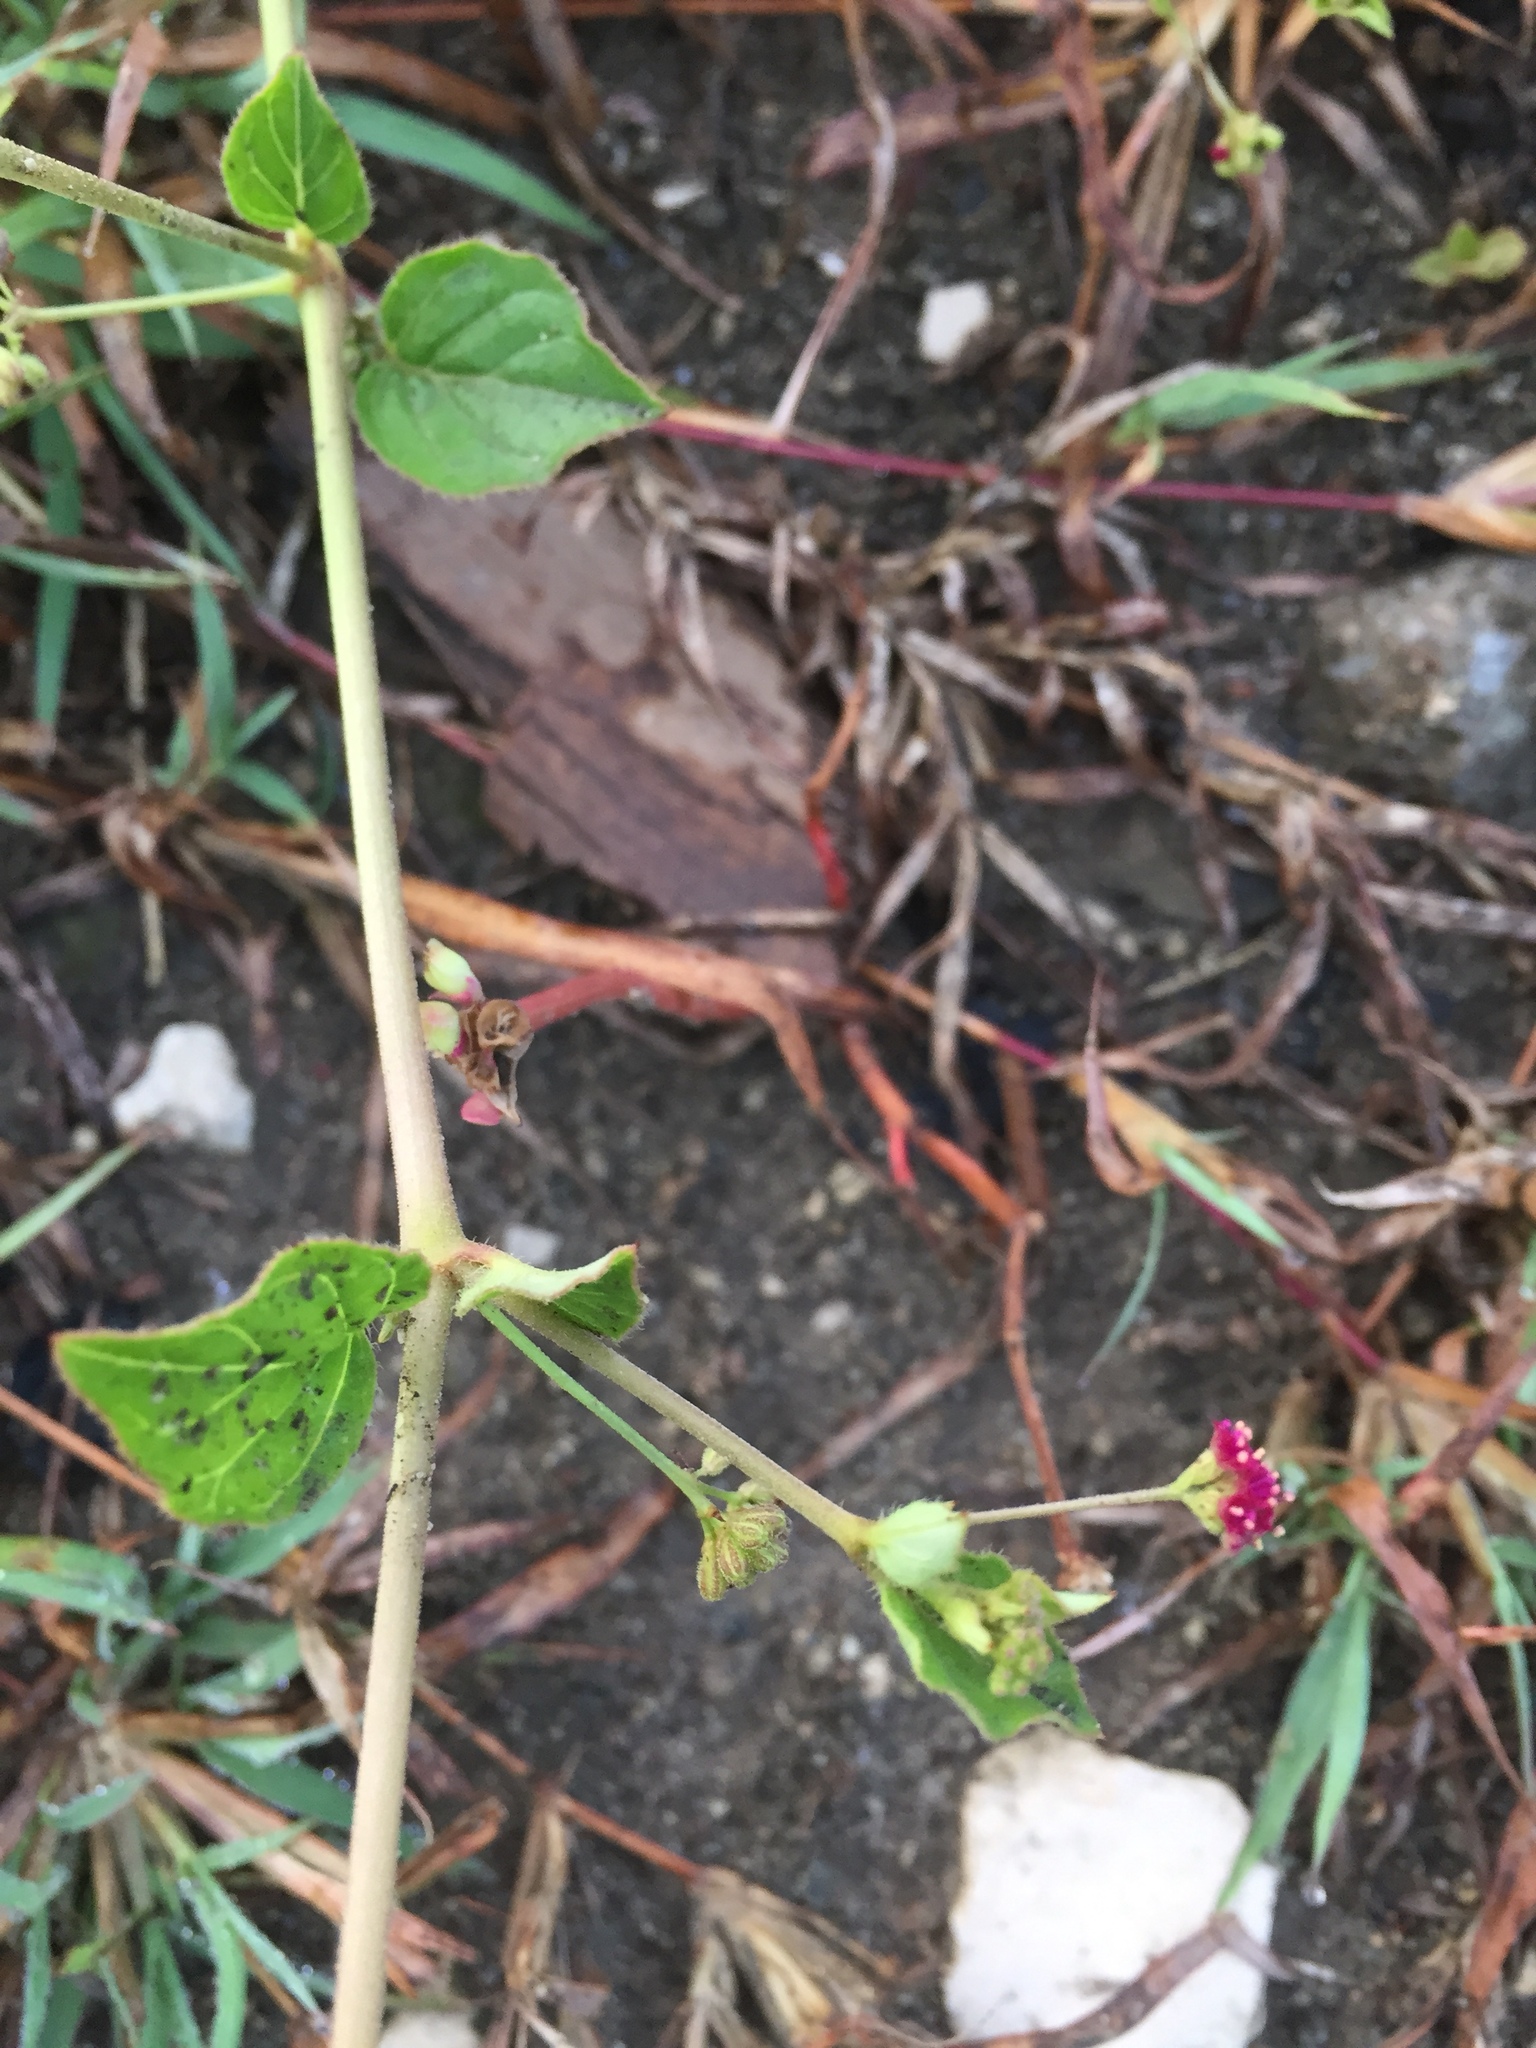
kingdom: Plantae
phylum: Tracheophyta
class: Magnoliopsida
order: Caryophyllales
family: Nyctaginaceae
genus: Boerhavia
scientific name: Boerhavia coccinea
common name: Scarlet spiderling
